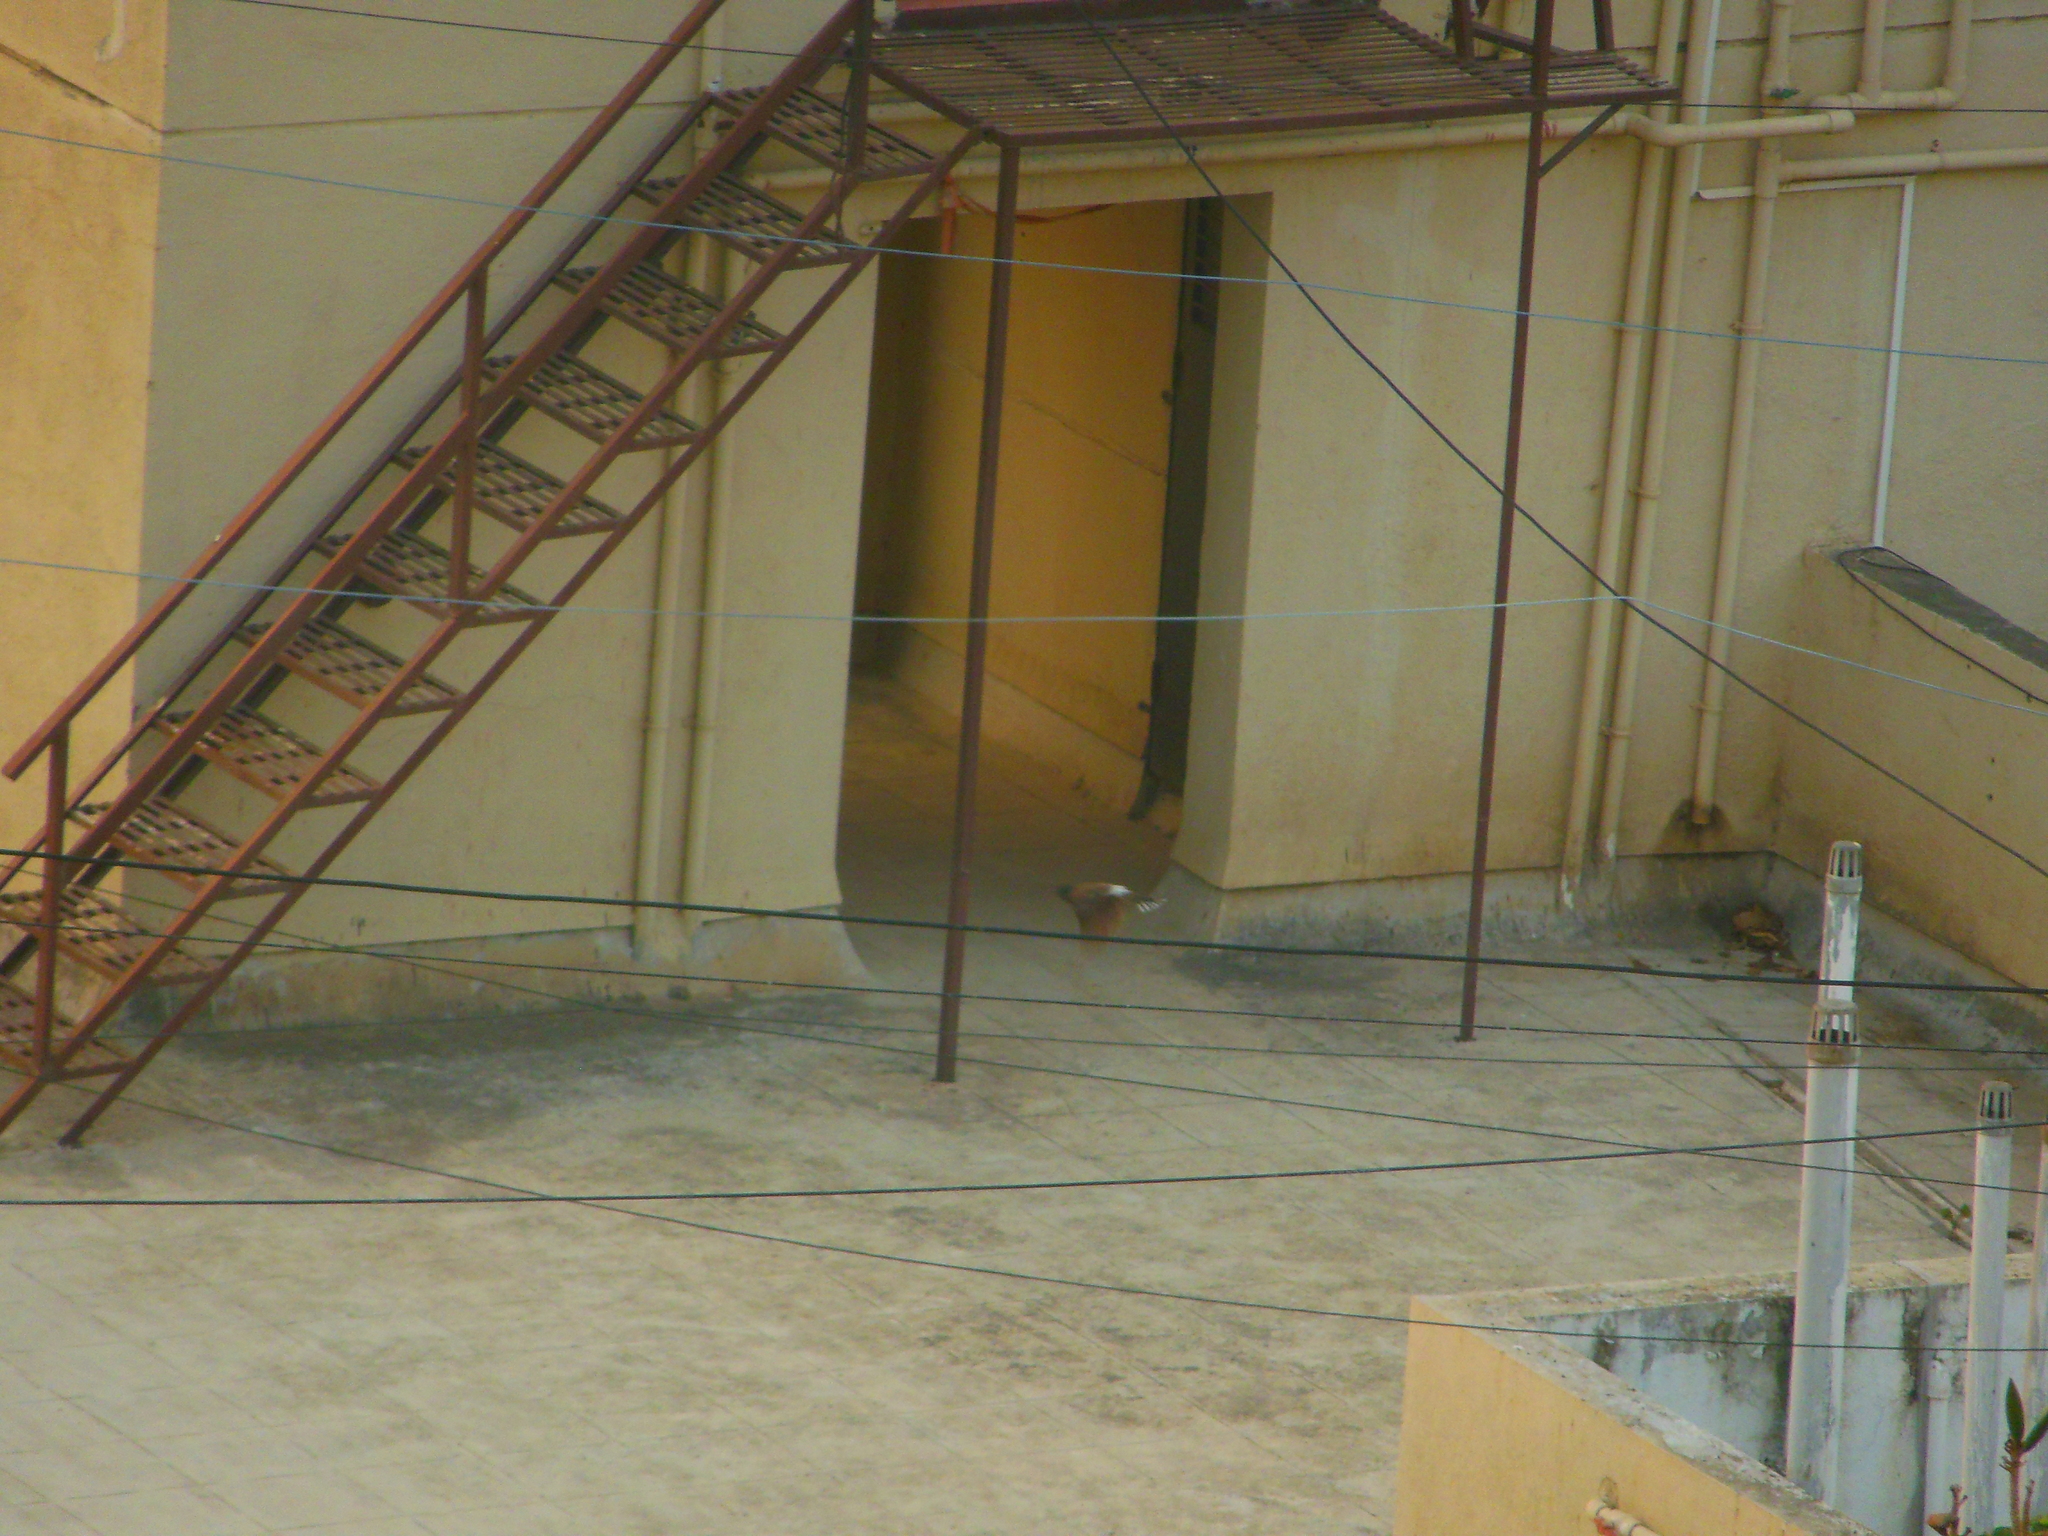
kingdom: Animalia
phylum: Chordata
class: Aves
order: Passeriformes
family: Pycnonotidae
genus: Pycnonotus
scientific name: Pycnonotus cafer
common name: Red-vented bulbul
